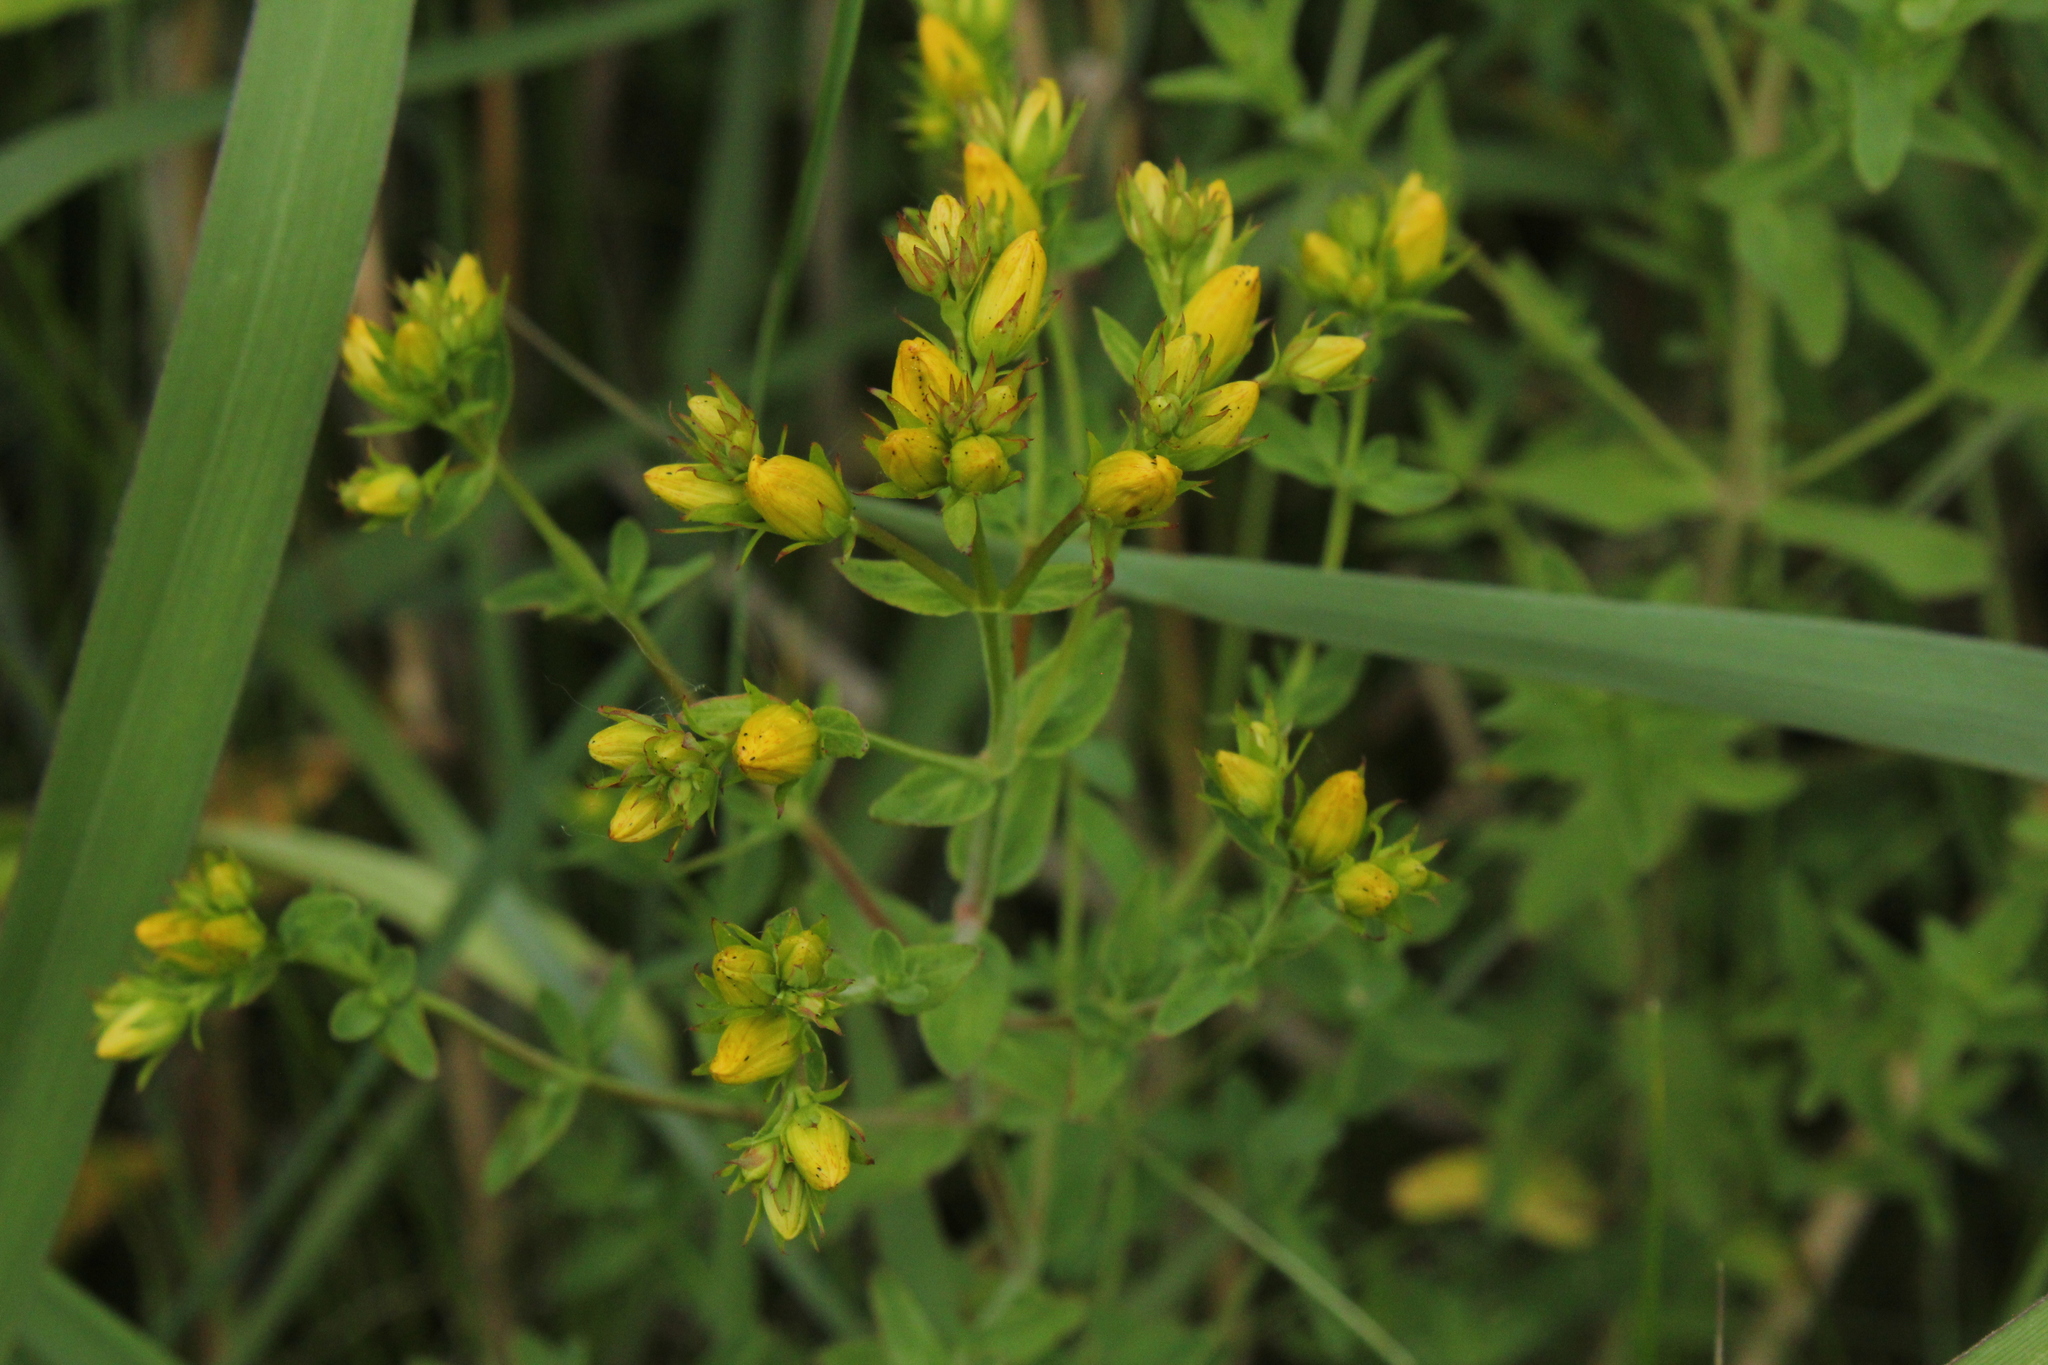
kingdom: Plantae
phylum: Tracheophyta
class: Magnoliopsida
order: Malpighiales
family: Hypericaceae
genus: Hypericum
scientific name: Hypericum perforatum
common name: Common st. johnswort
